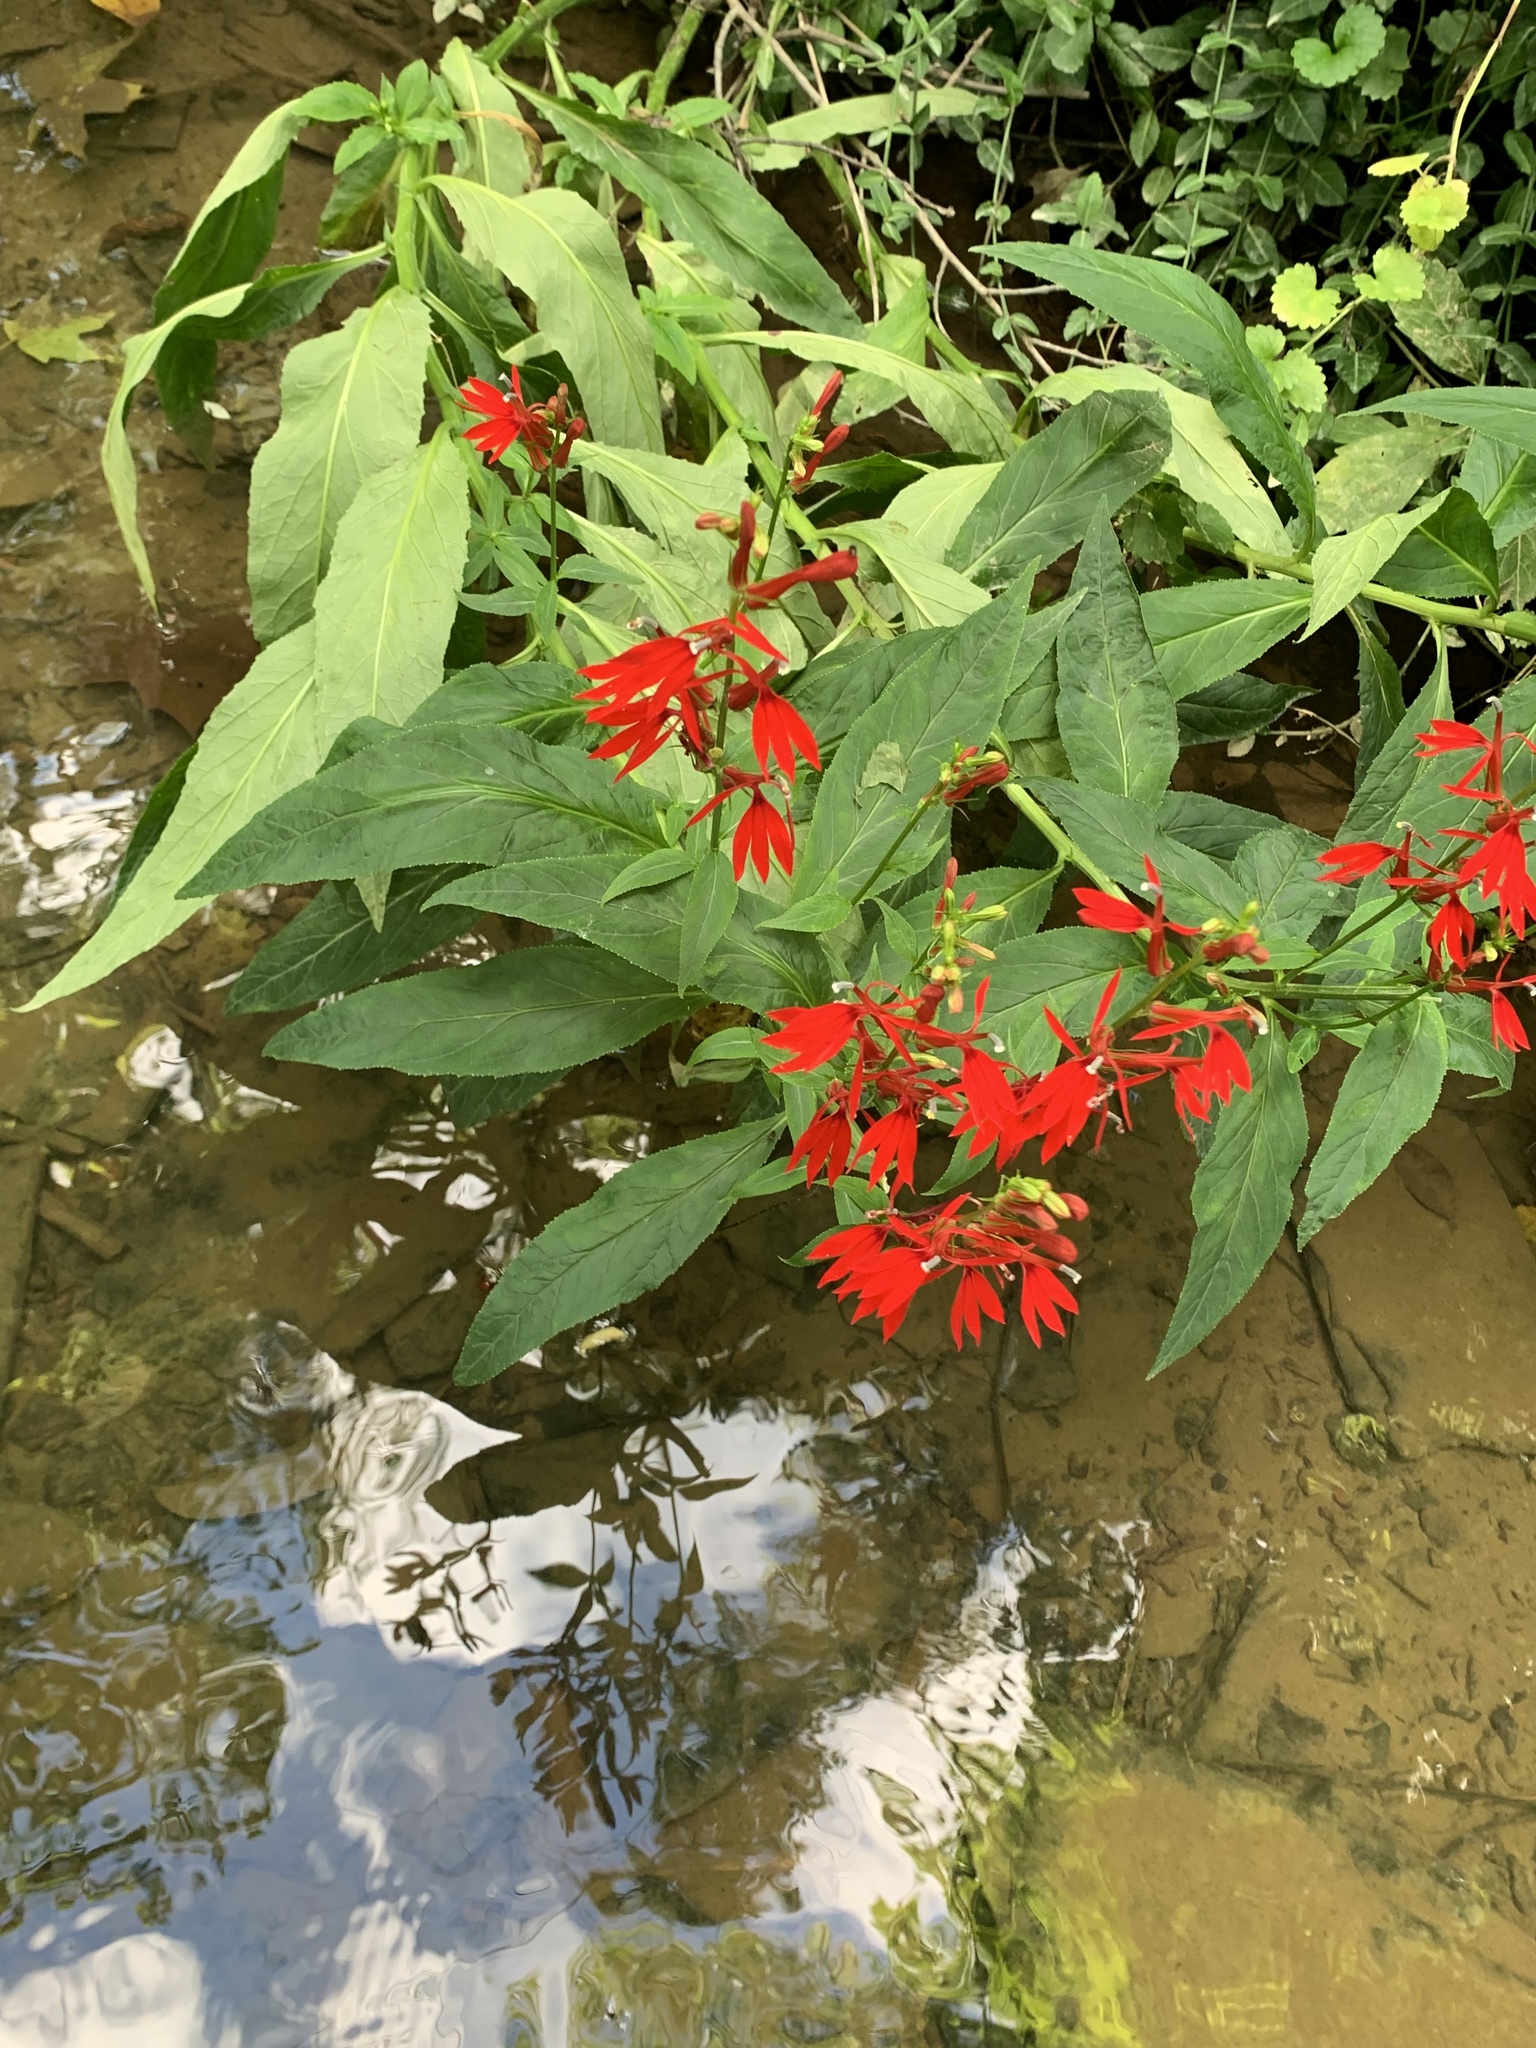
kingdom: Plantae
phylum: Tracheophyta
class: Magnoliopsida
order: Asterales
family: Campanulaceae
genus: Lobelia
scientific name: Lobelia cardinalis
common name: Cardinal flower
